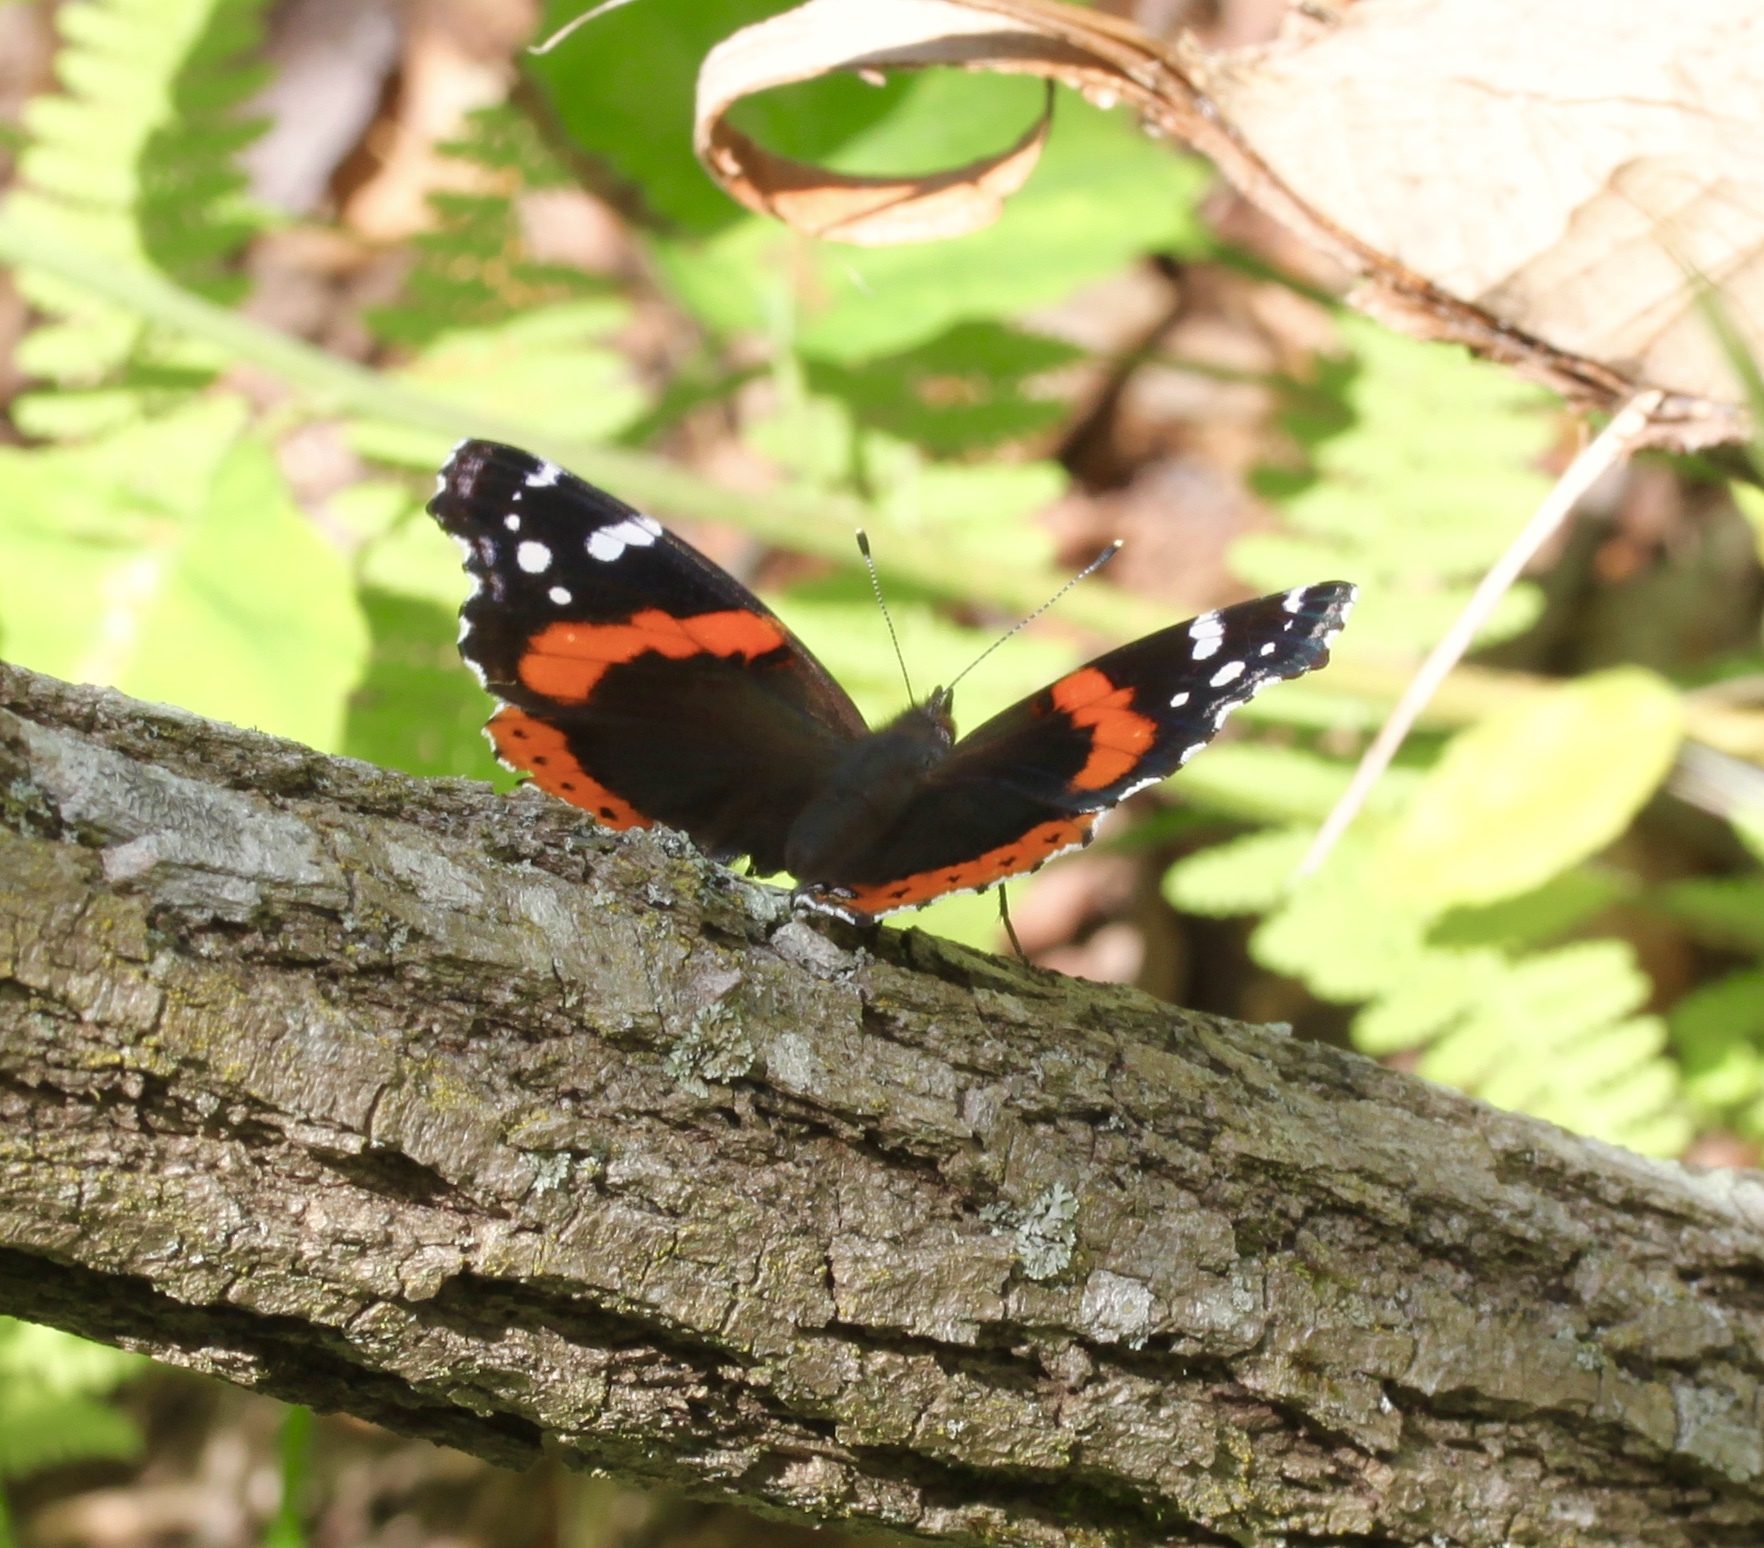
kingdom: Animalia
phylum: Arthropoda
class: Insecta
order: Lepidoptera
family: Nymphalidae
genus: Vanessa
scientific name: Vanessa atalanta
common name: Red admiral
